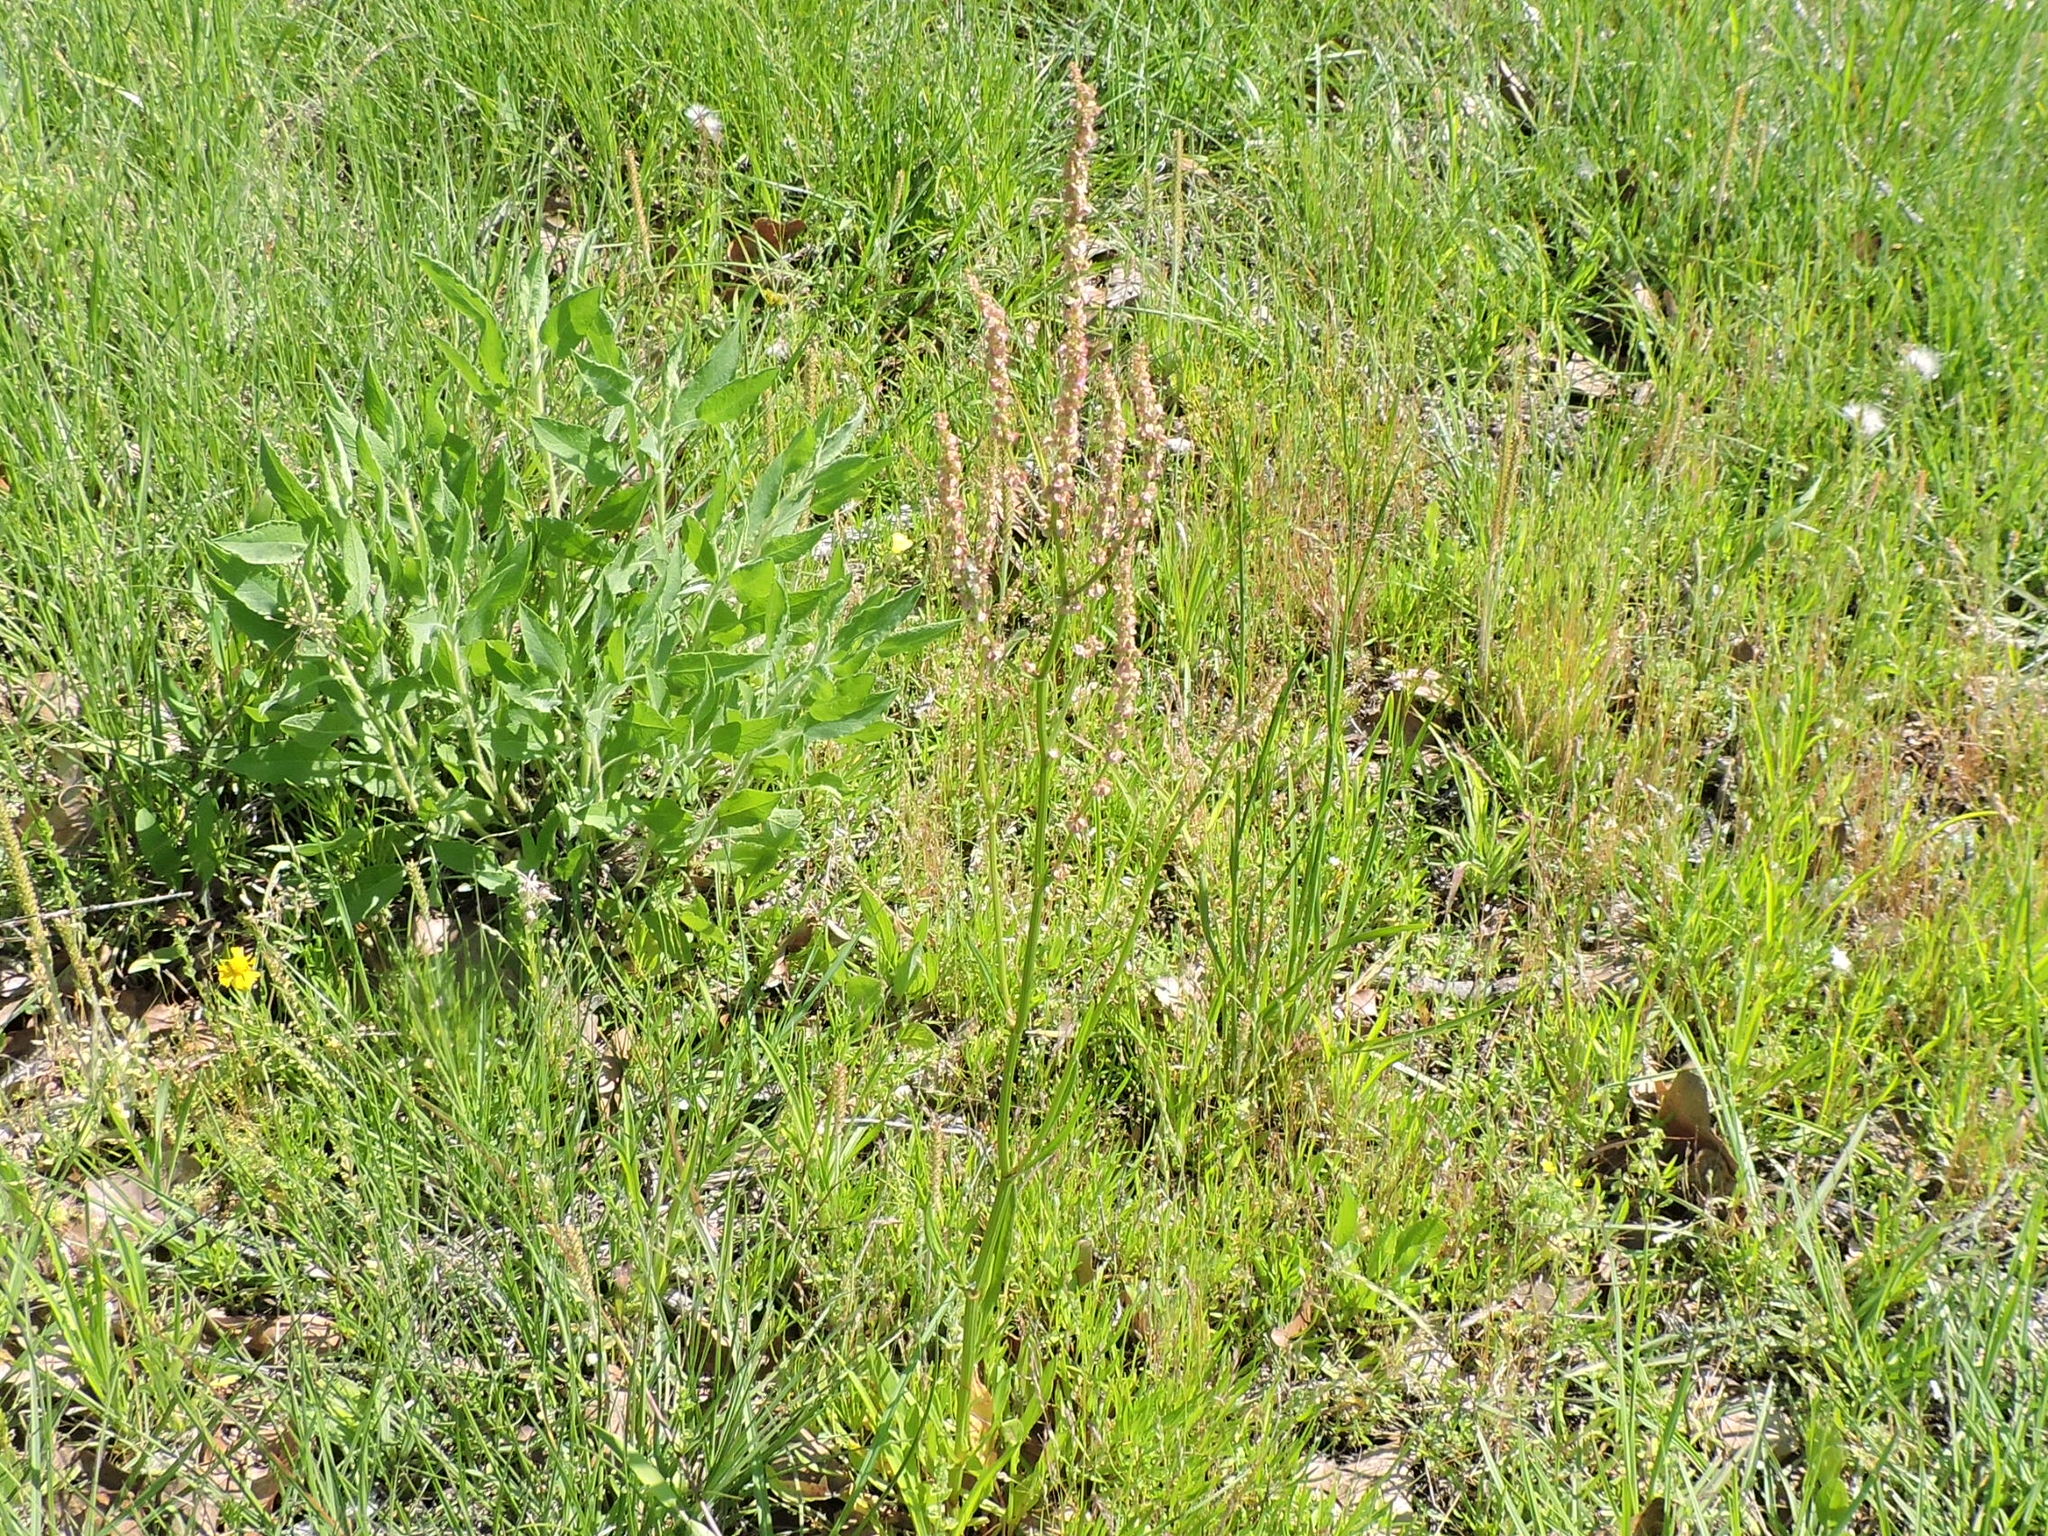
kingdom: Plantae
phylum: Tracheophyta
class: Magnoliopsida
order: Caryophyllales
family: Polygonaceae
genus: Rumex
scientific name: Rumex hastatulus
